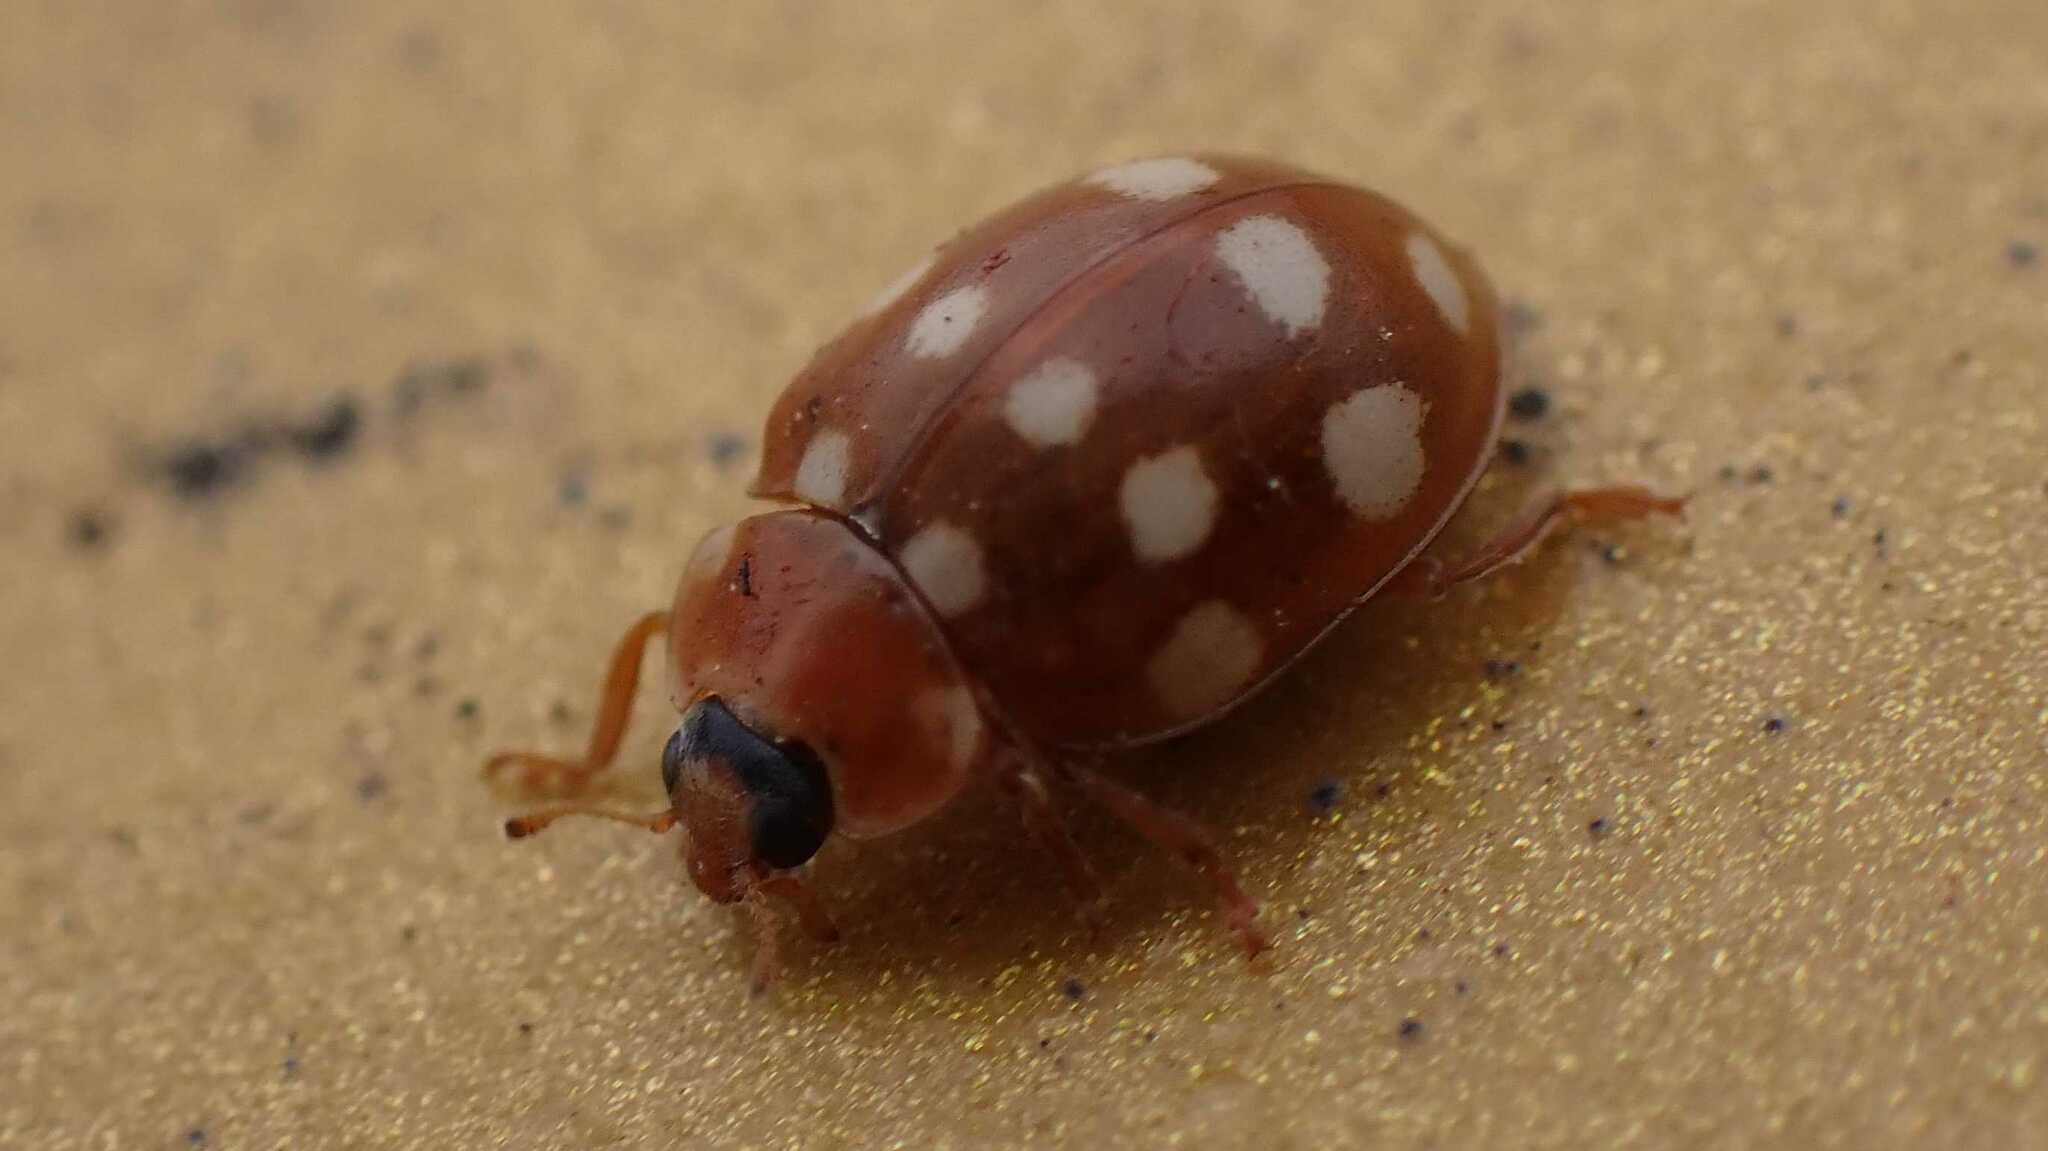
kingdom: Animalia
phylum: Arthropoda
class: Insecta
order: Coleoptera
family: Coccinellidae
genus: Calvia
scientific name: Calvia quatuordecimguttata
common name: Cream-spot ladybird
